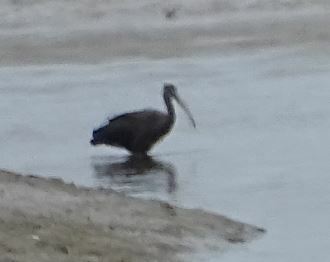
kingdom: Animalia
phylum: Chordata
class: Aves
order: Pelecaniformes
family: Threskiornithidae
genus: Plegadis
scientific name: Plegadis falcinellus
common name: Glossy ibis
